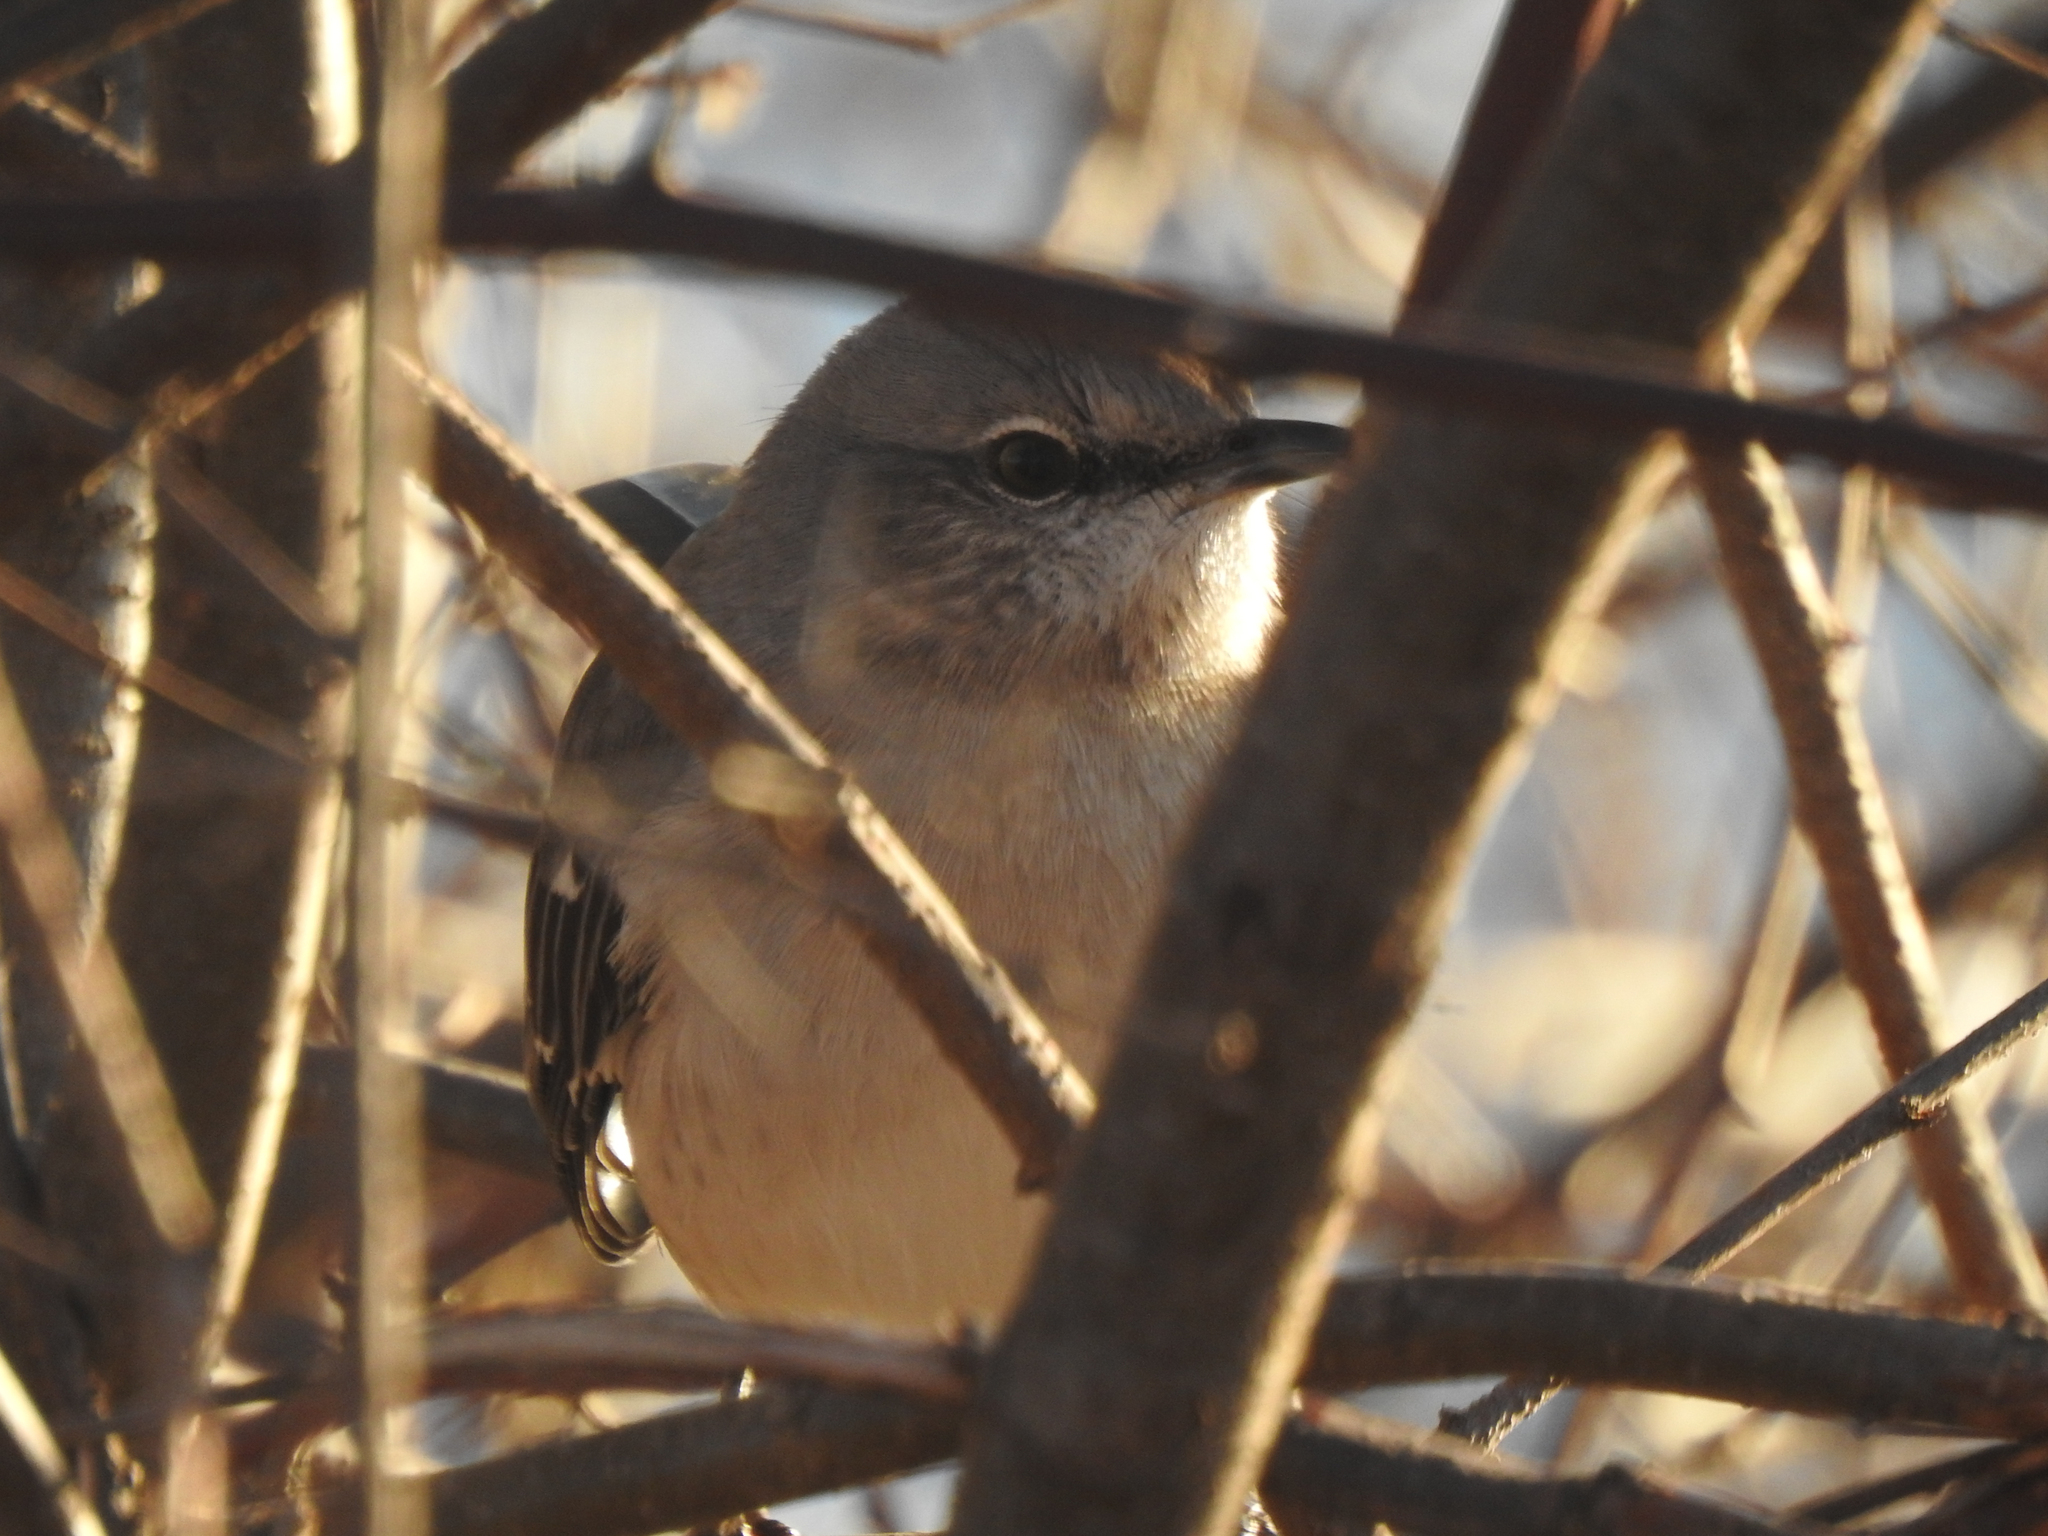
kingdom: Animalia
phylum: Chordata
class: Aves
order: Passeriformes
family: Mimidae
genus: Mimus
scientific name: Mimus polyglottos
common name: Northern mockingbird
